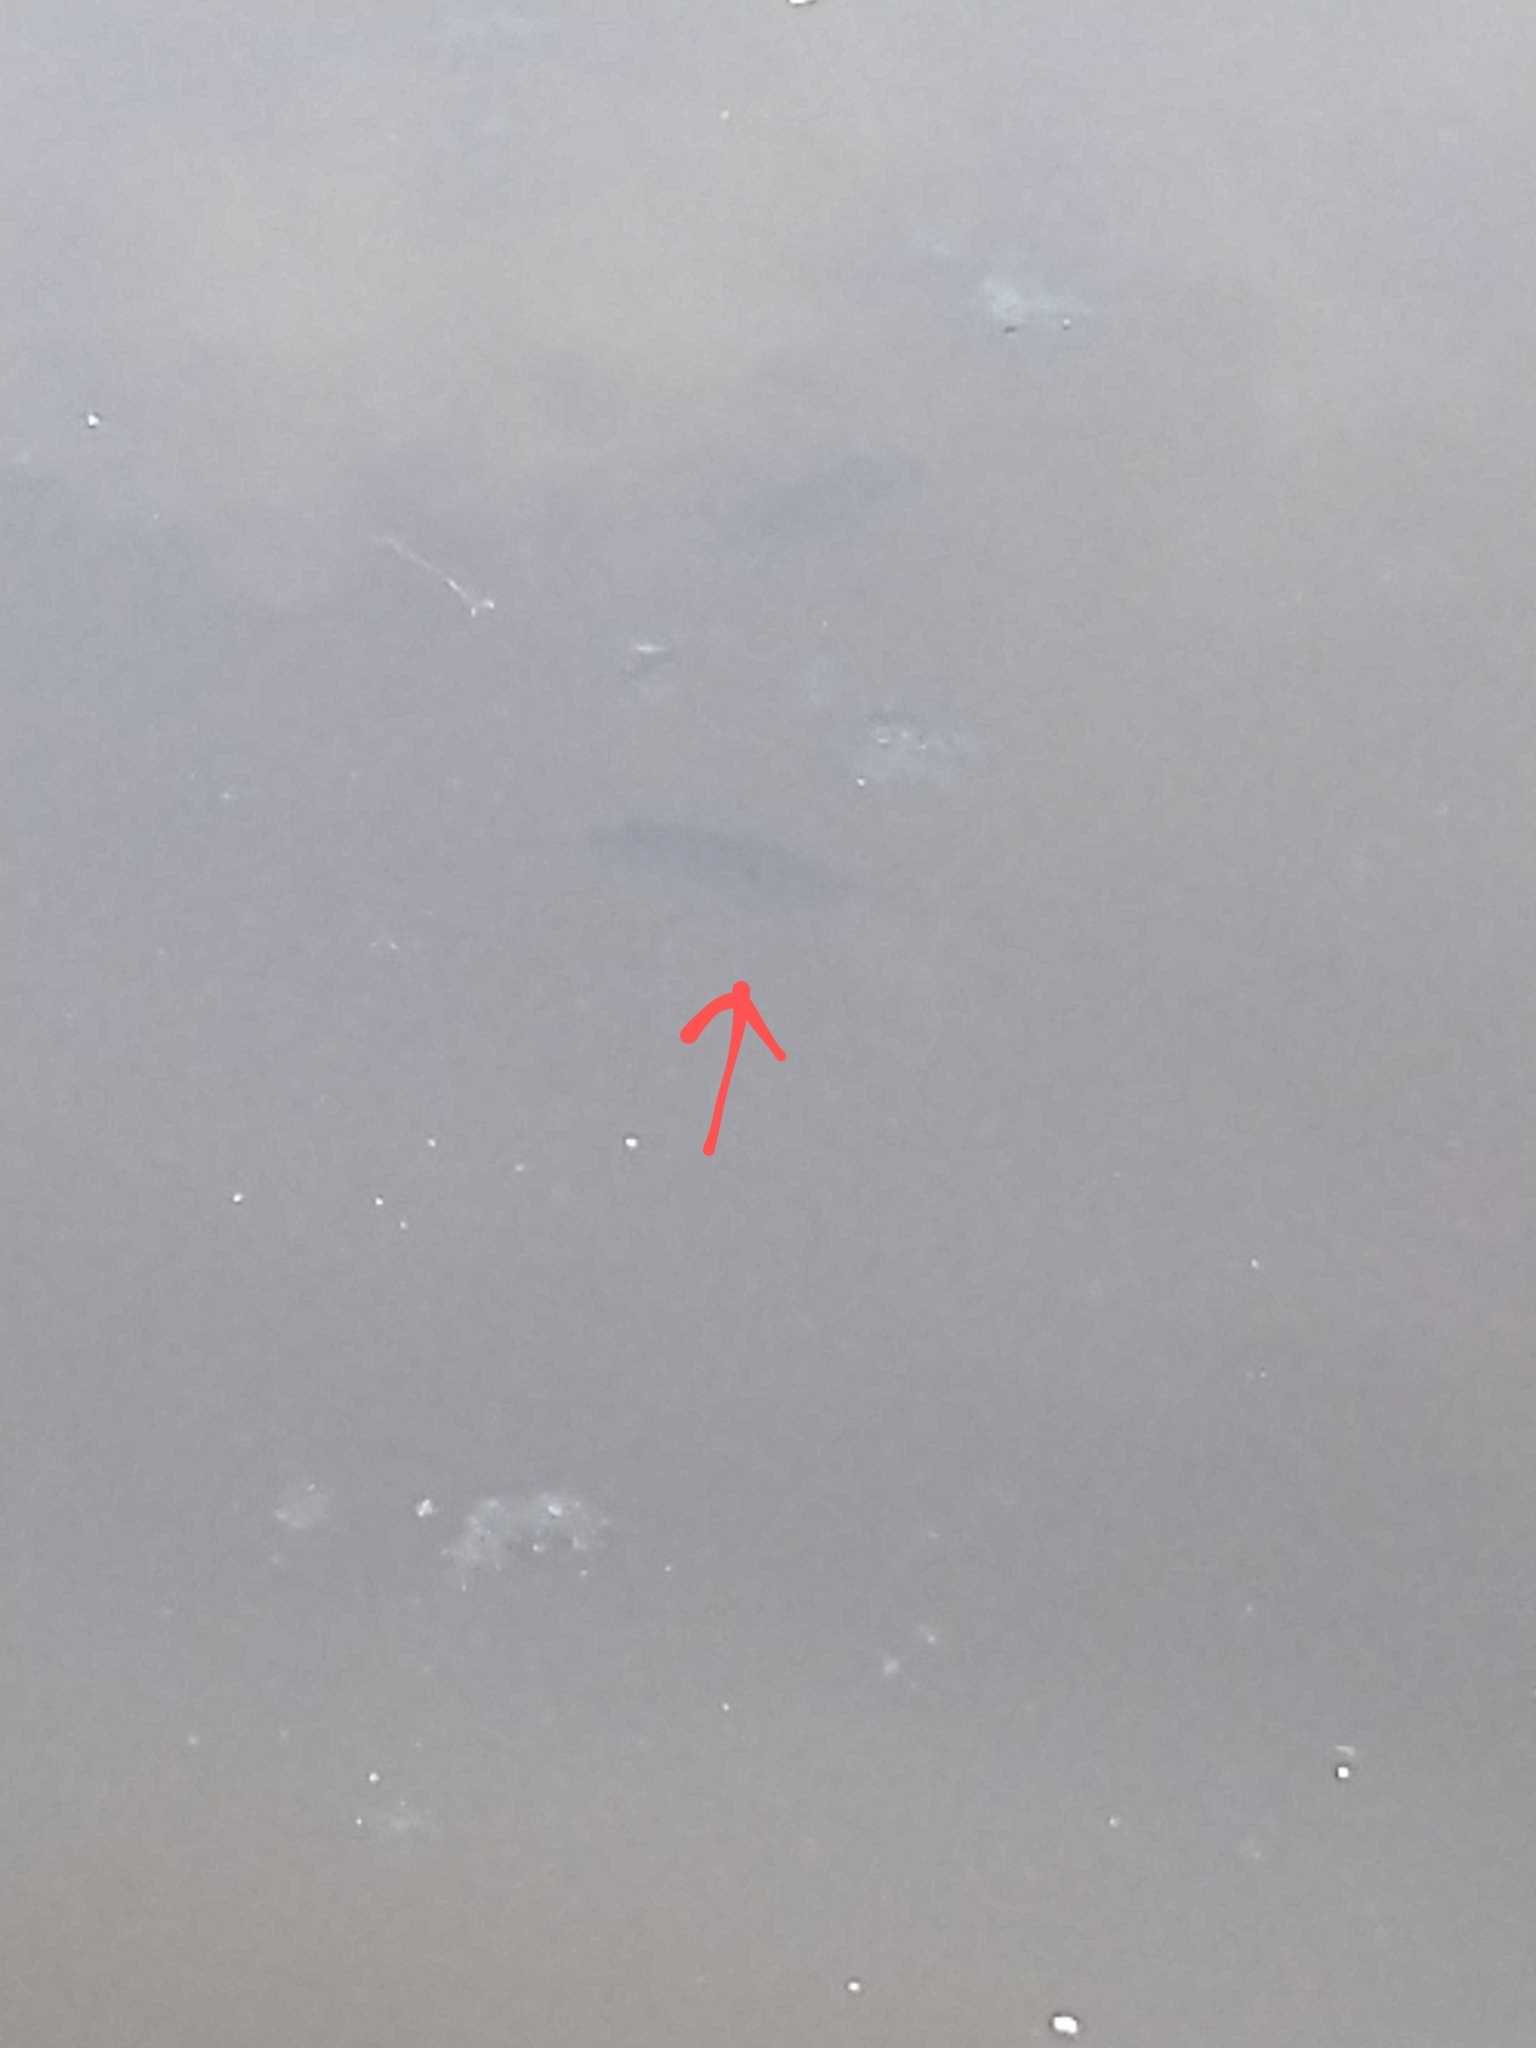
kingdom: Animalia
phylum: Chordata
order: Perciformes
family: Cichlidae
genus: Etroplus
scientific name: Etroplus maculatus
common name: Orange chromide
